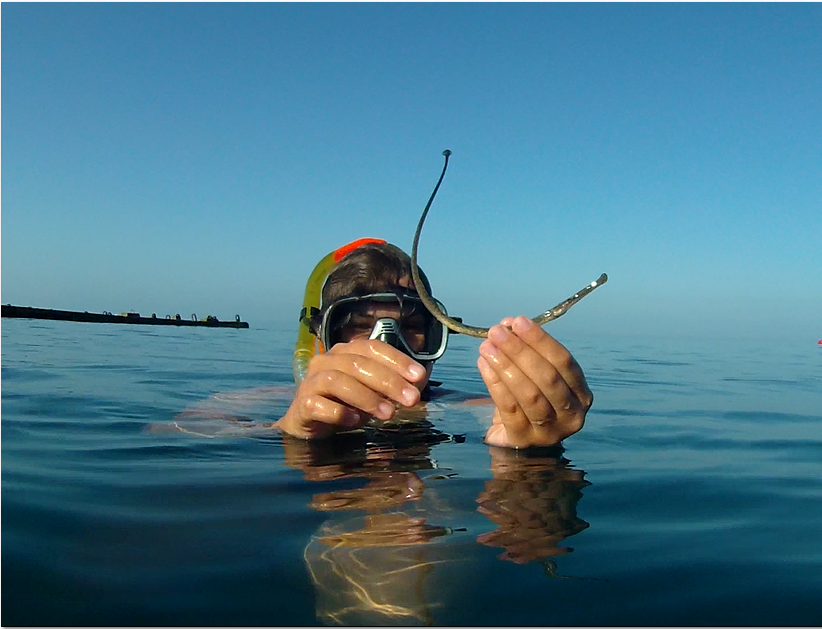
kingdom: Animalia
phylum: Chordata
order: Syngnathiformes
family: Syngnathidae
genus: Syngnathus
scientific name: Syngnathus typhle
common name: Deep-snouted pipefish
